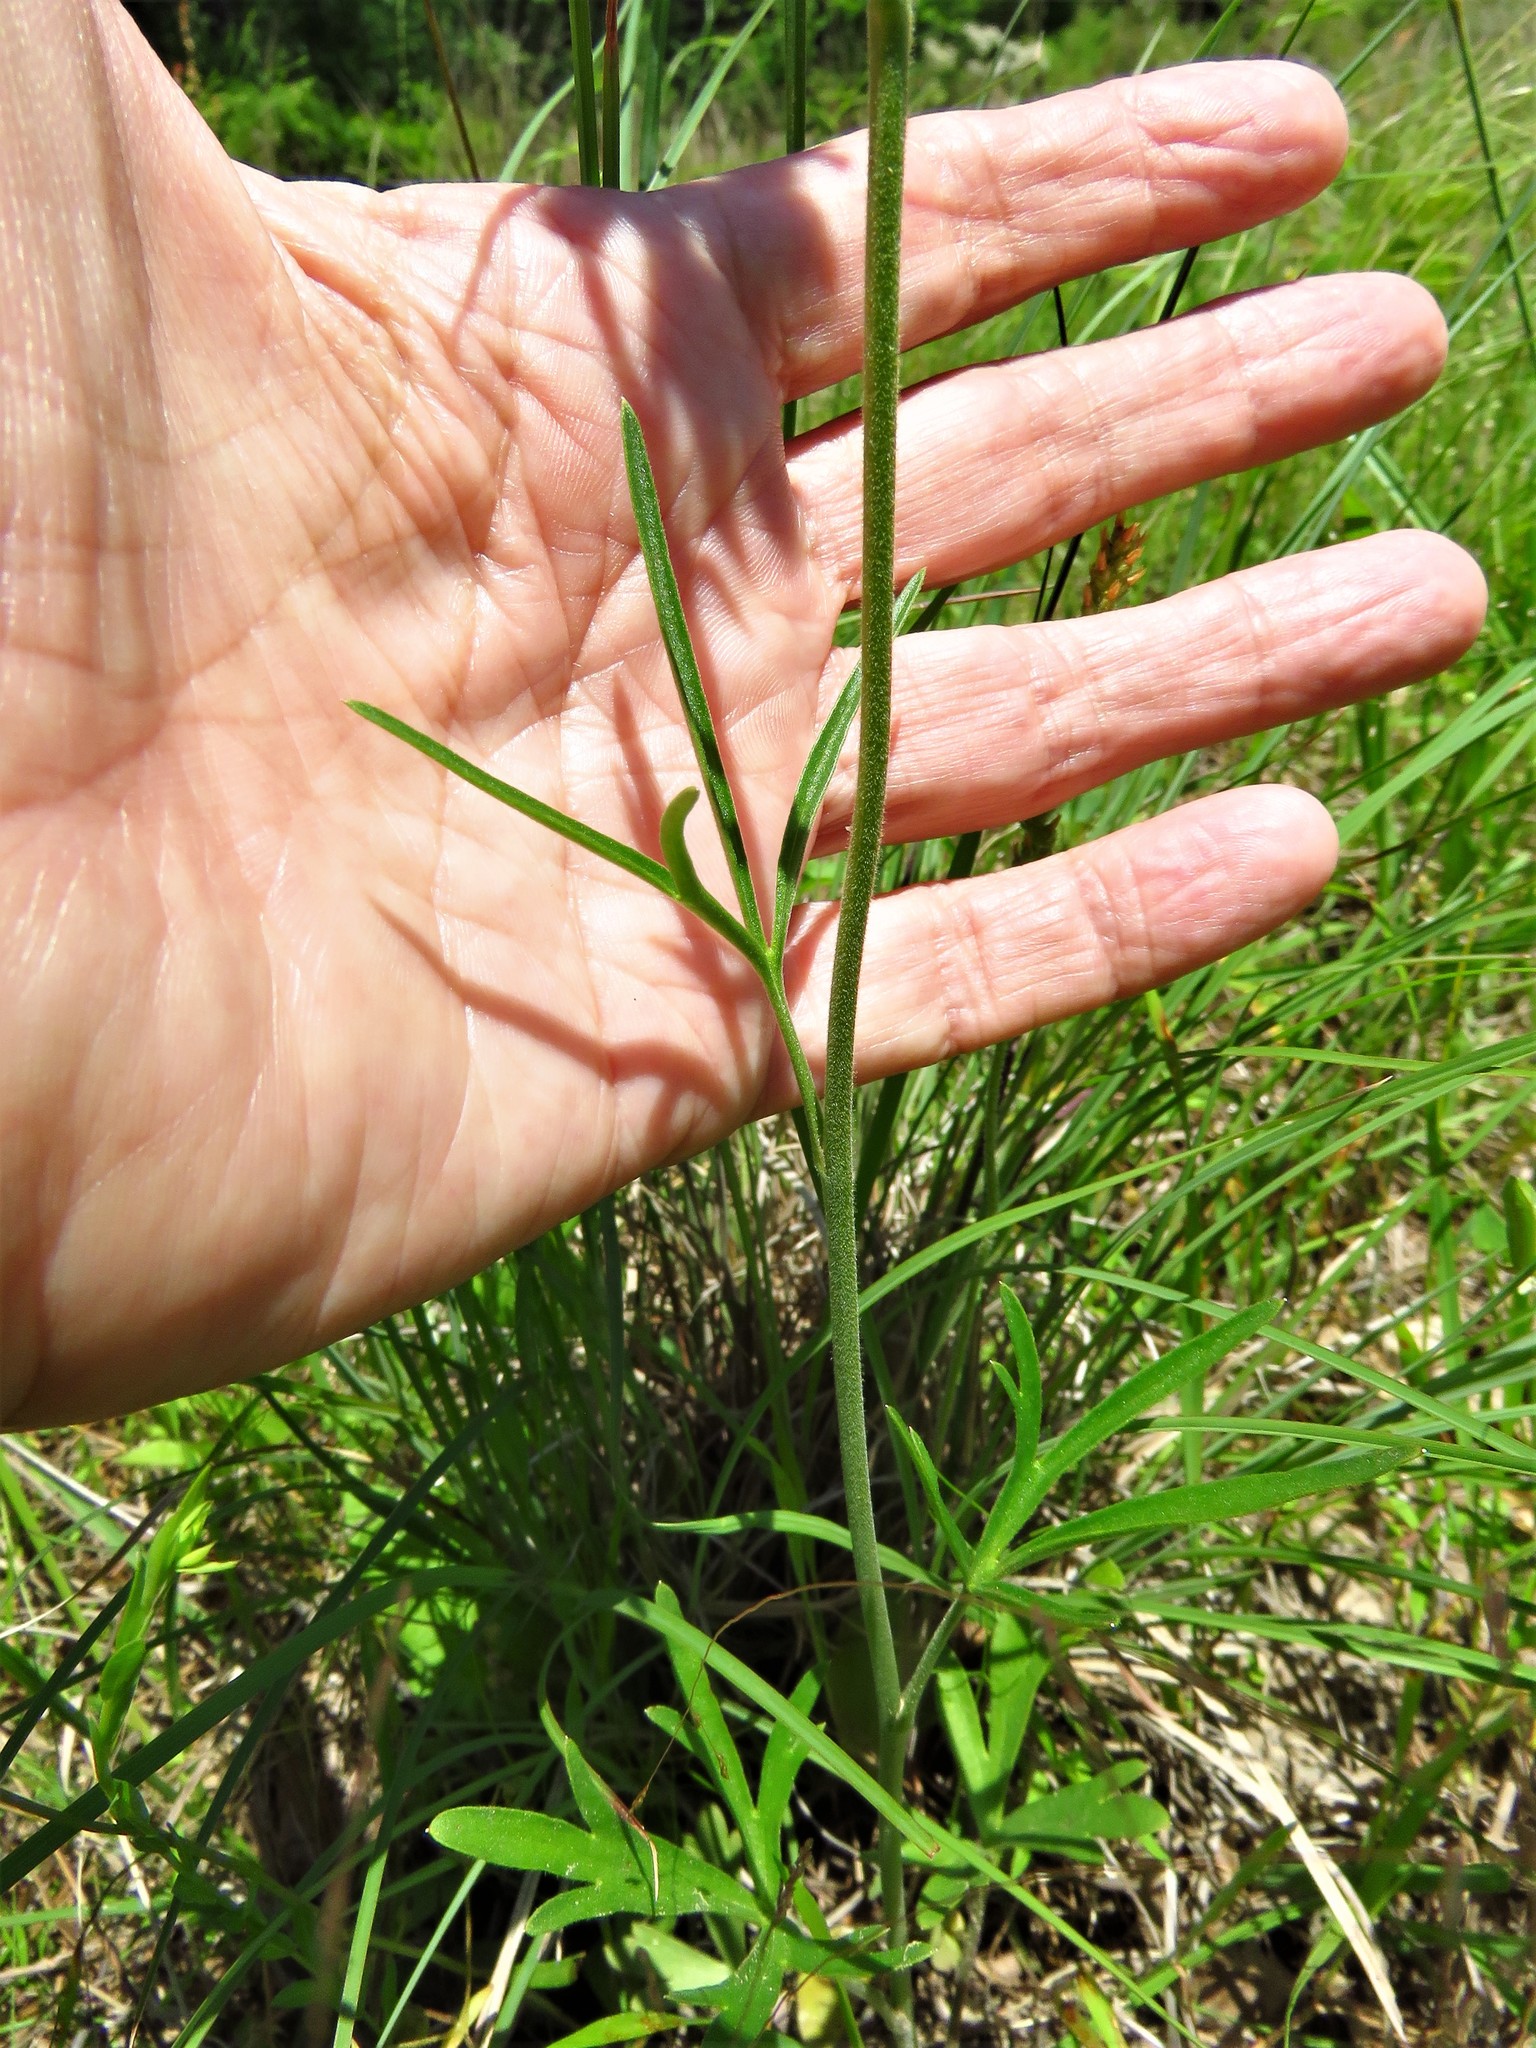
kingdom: Plantae
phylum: Tracheophyta
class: Magnoliopsida
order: Ranunculales
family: Ranunculaceae
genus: Delphinium
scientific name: Delphinium carolinianum
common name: Carolina larkspur
